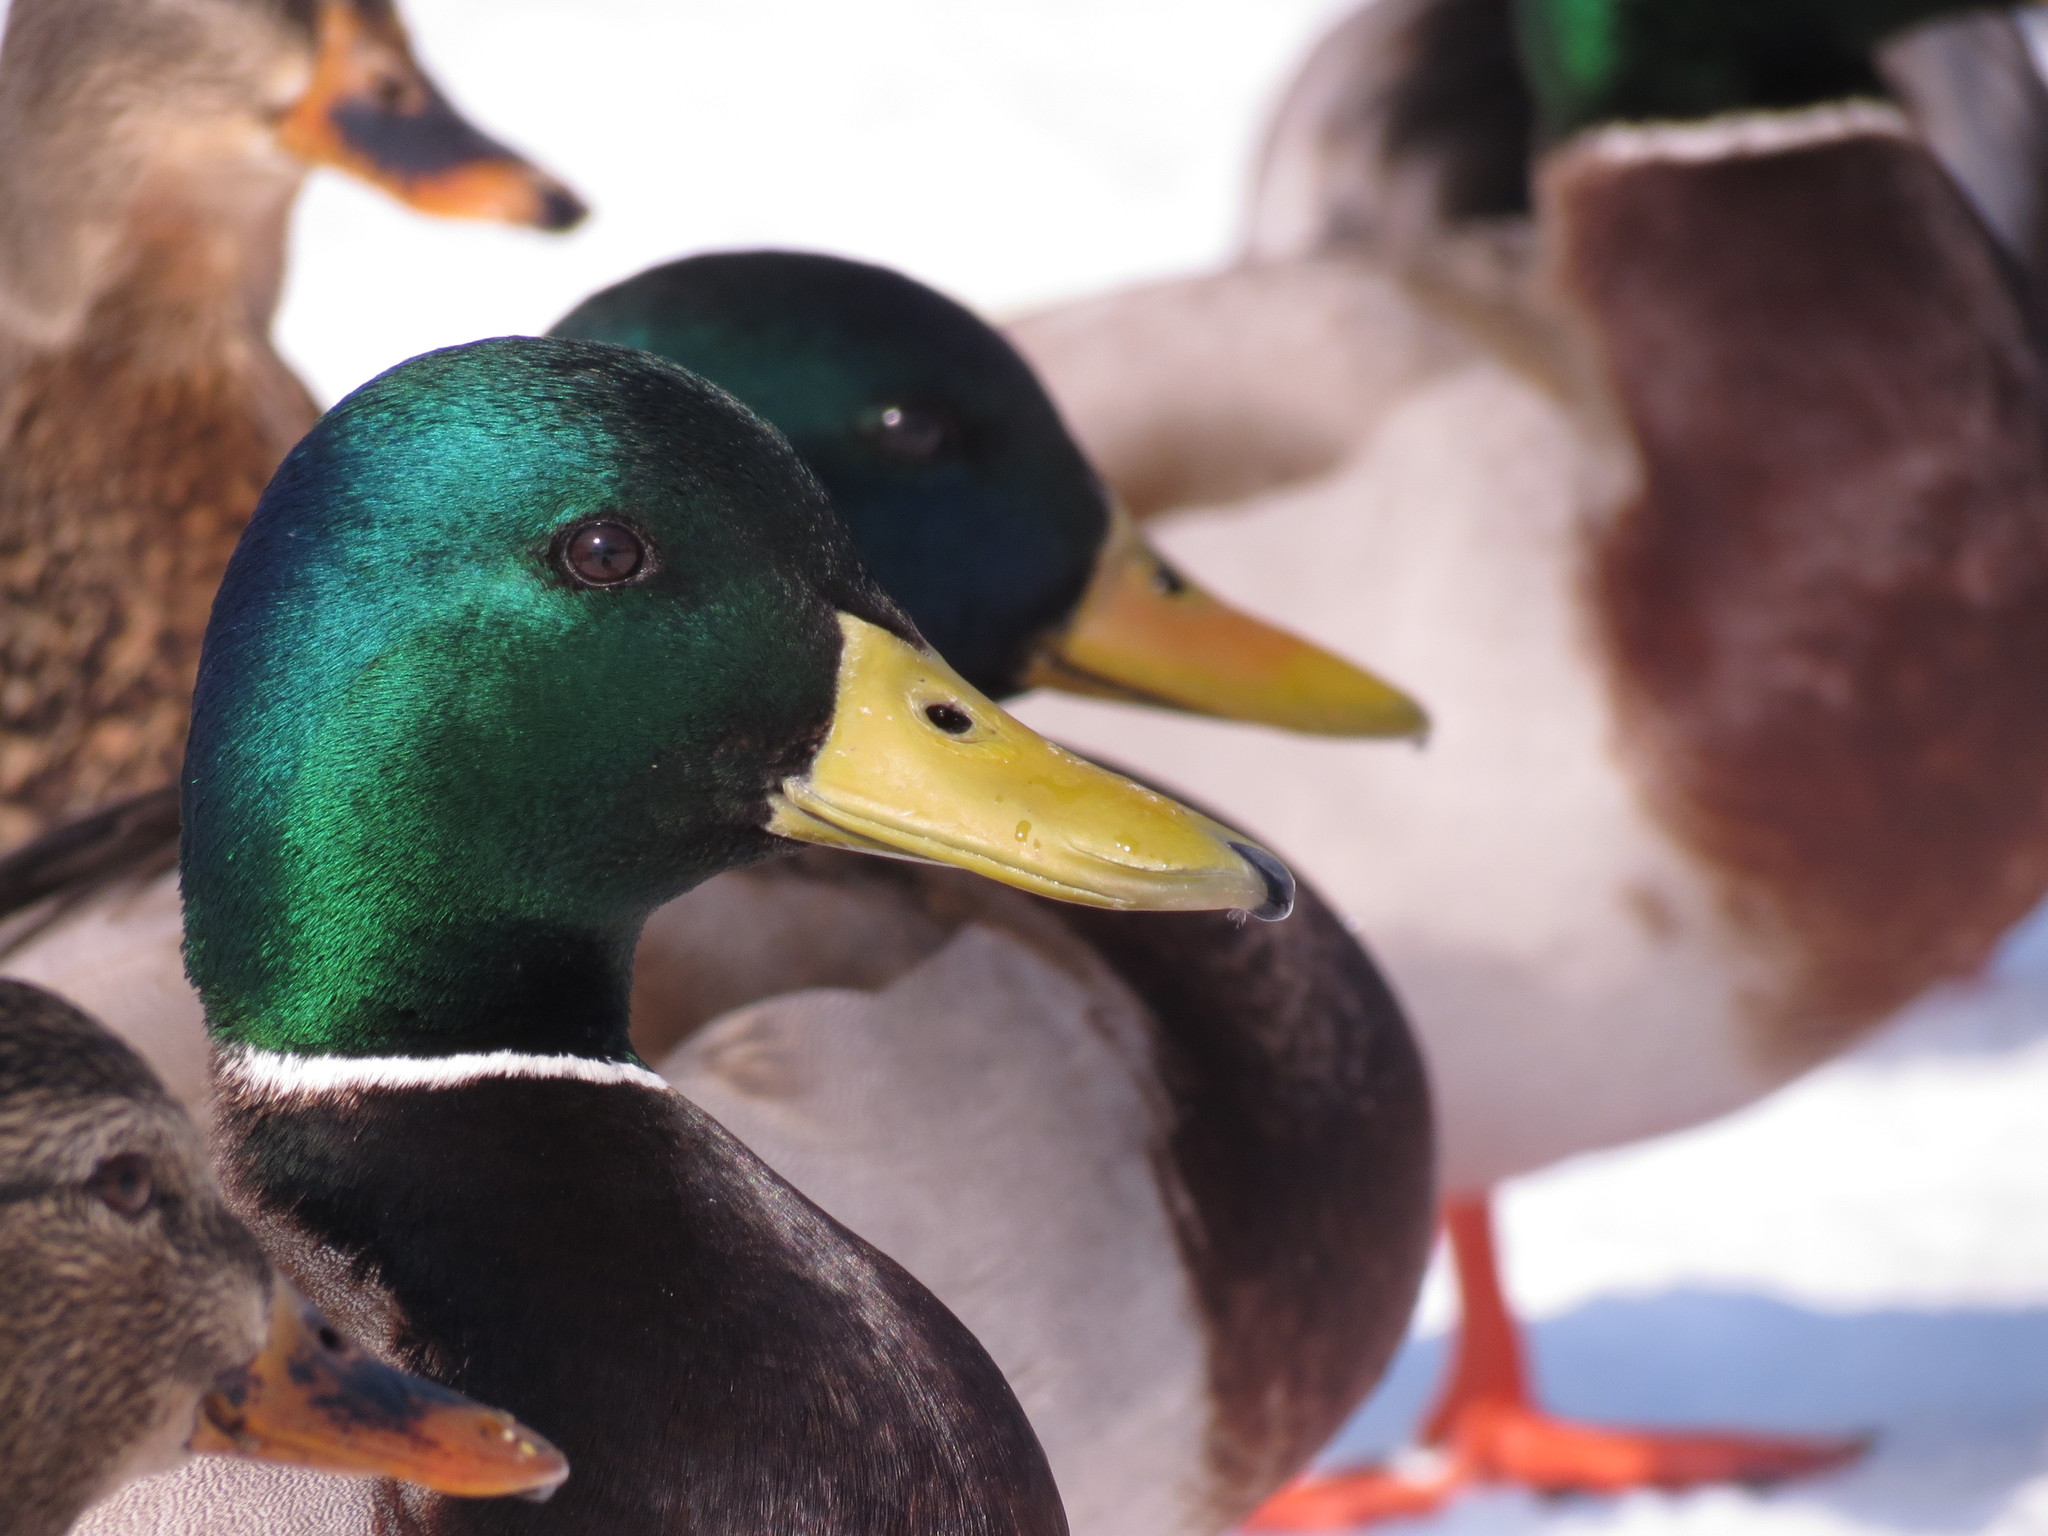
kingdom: Animalia
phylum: Chordata
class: Aves
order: Anseriformes
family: Anatidae
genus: Anas
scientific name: Anas platyrhynchos
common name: Mallard
